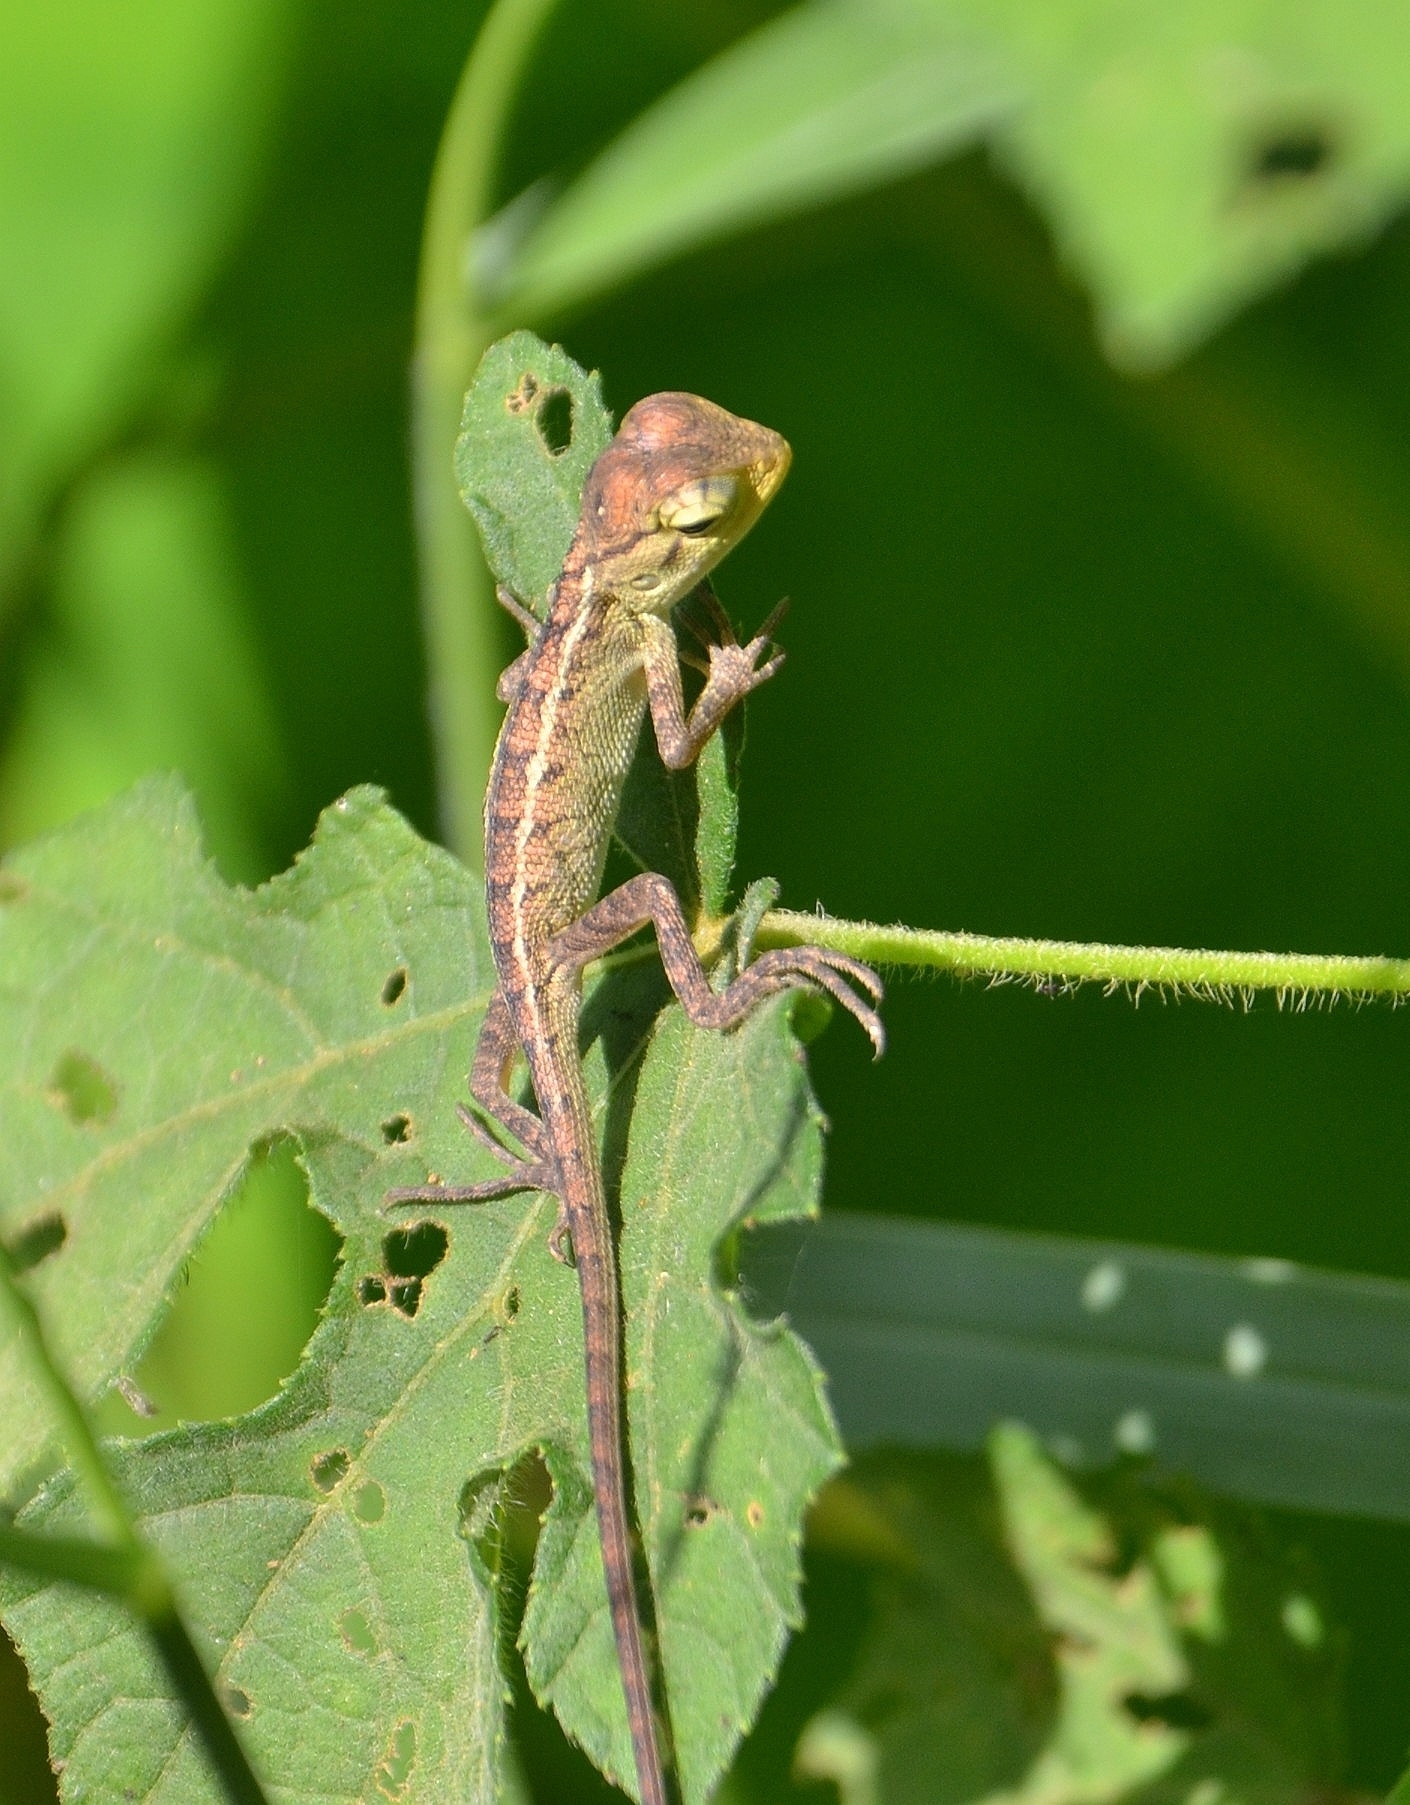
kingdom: Animalia
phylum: Chordata
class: Squamata
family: Agamidae
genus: Calotes
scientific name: Calotes versicolor
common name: Oriental garden lizard
